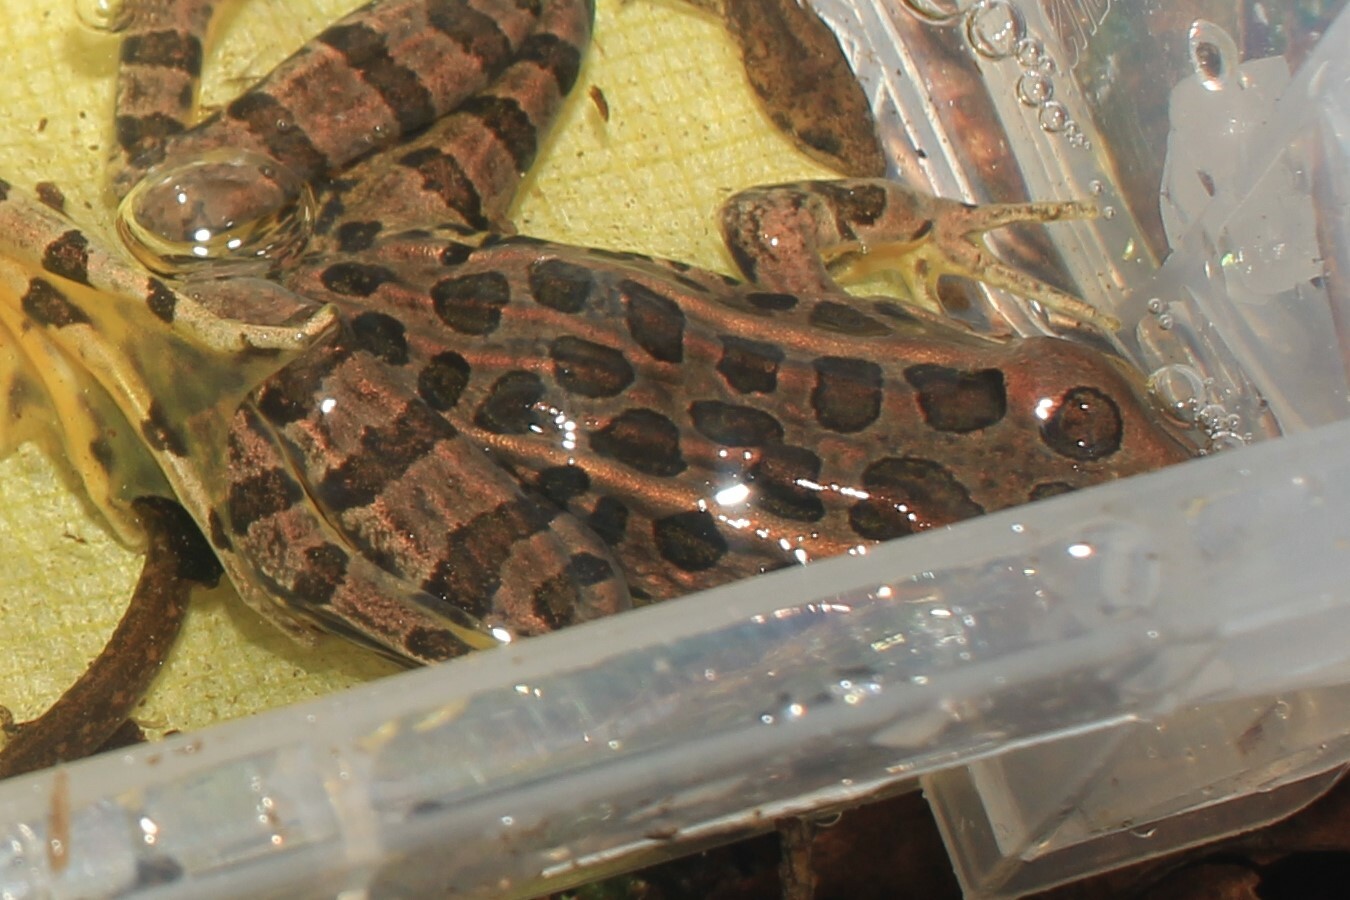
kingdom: Animalia
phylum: Chordata
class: Amphibia
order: Anura
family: Ranidae
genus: Lithobates
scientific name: Lithobates palustris
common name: Pickerel frog
